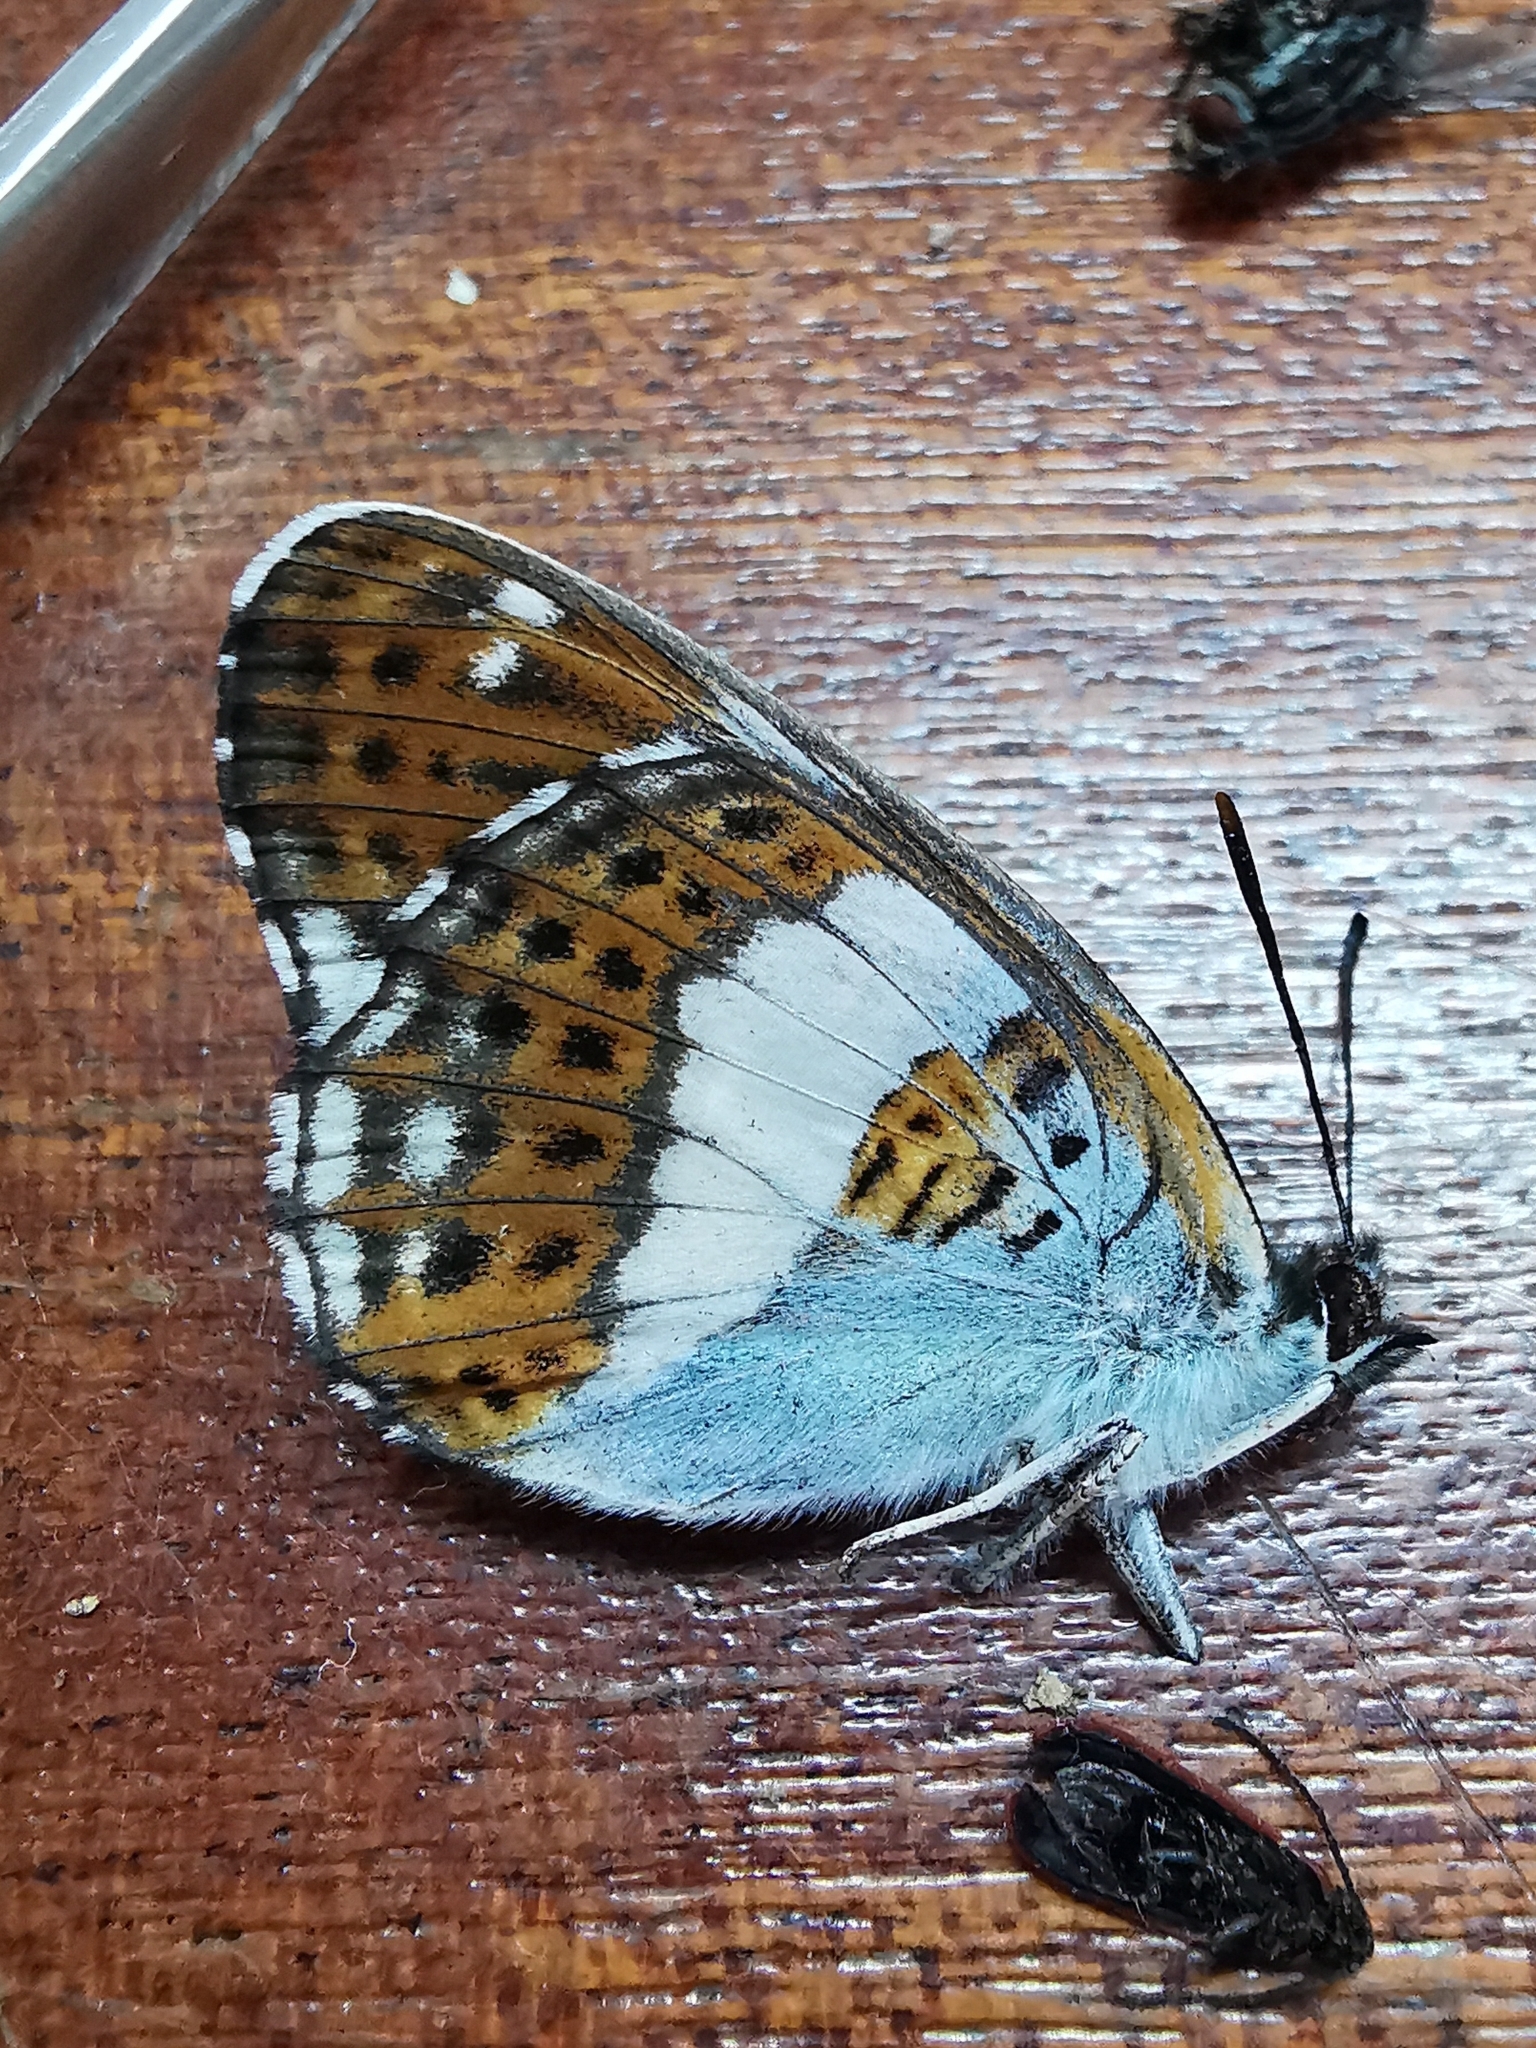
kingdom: Animalia
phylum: Arthropoda
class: Insecta
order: Lepidoptera
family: Nymphalidae
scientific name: Nymphalidae
